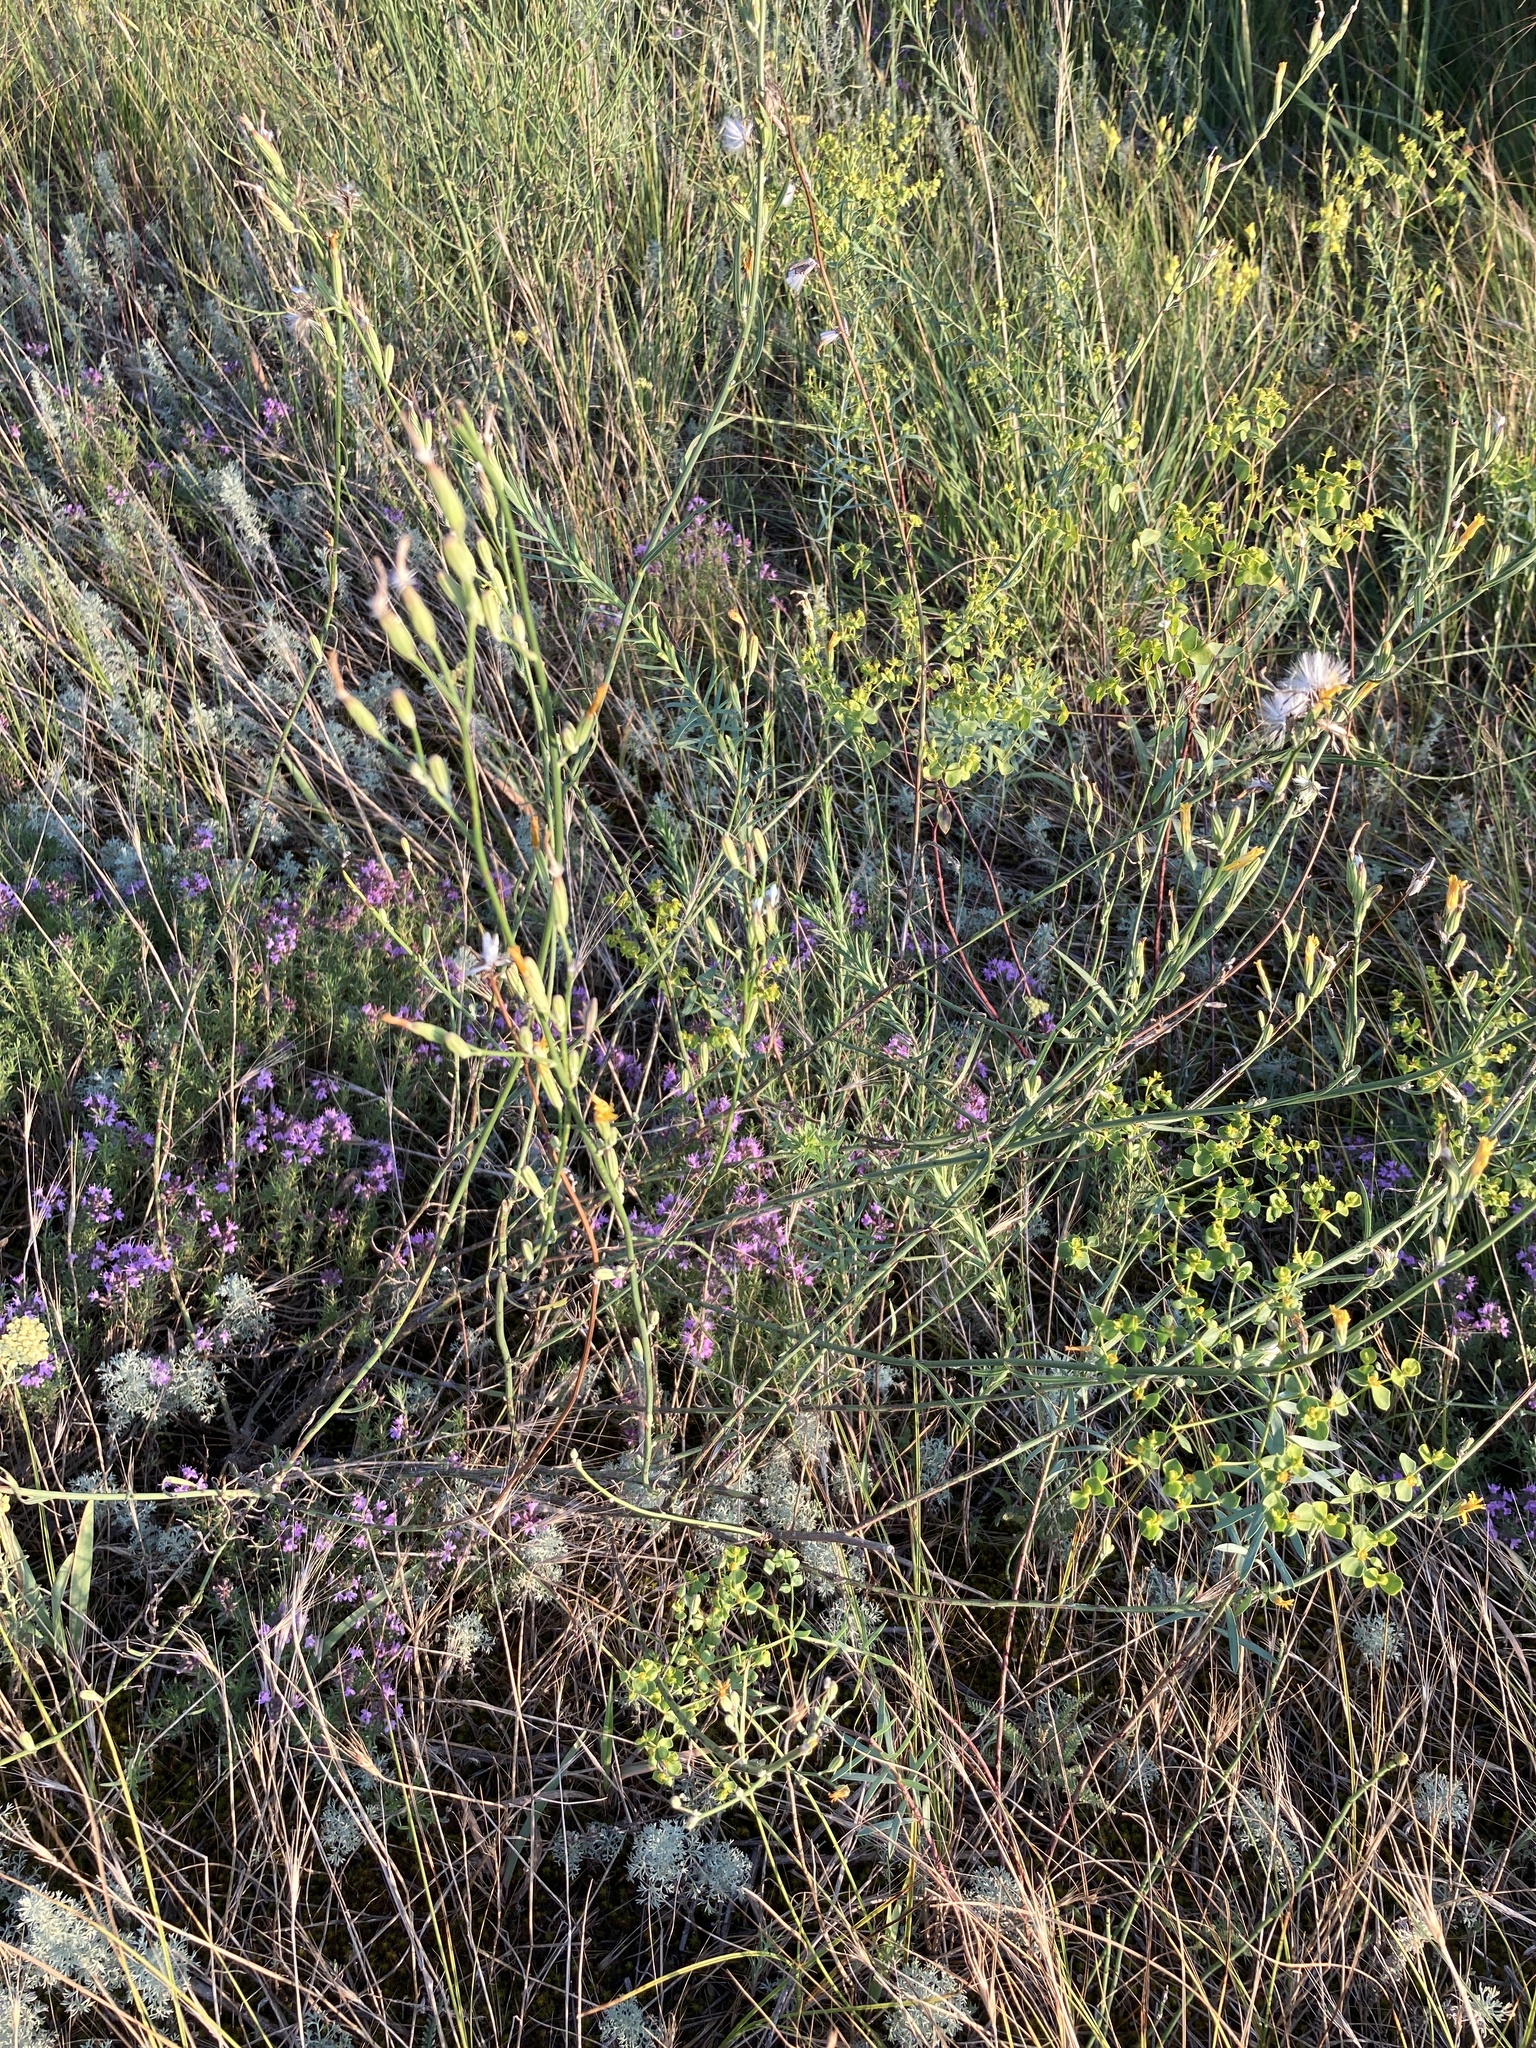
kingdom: Plantae
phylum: Tracheophyta
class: Magnoliopsida
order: Asterales
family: Asteraceae
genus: Chondrilla
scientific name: Chondrilla juncea
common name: Skeleton weed
